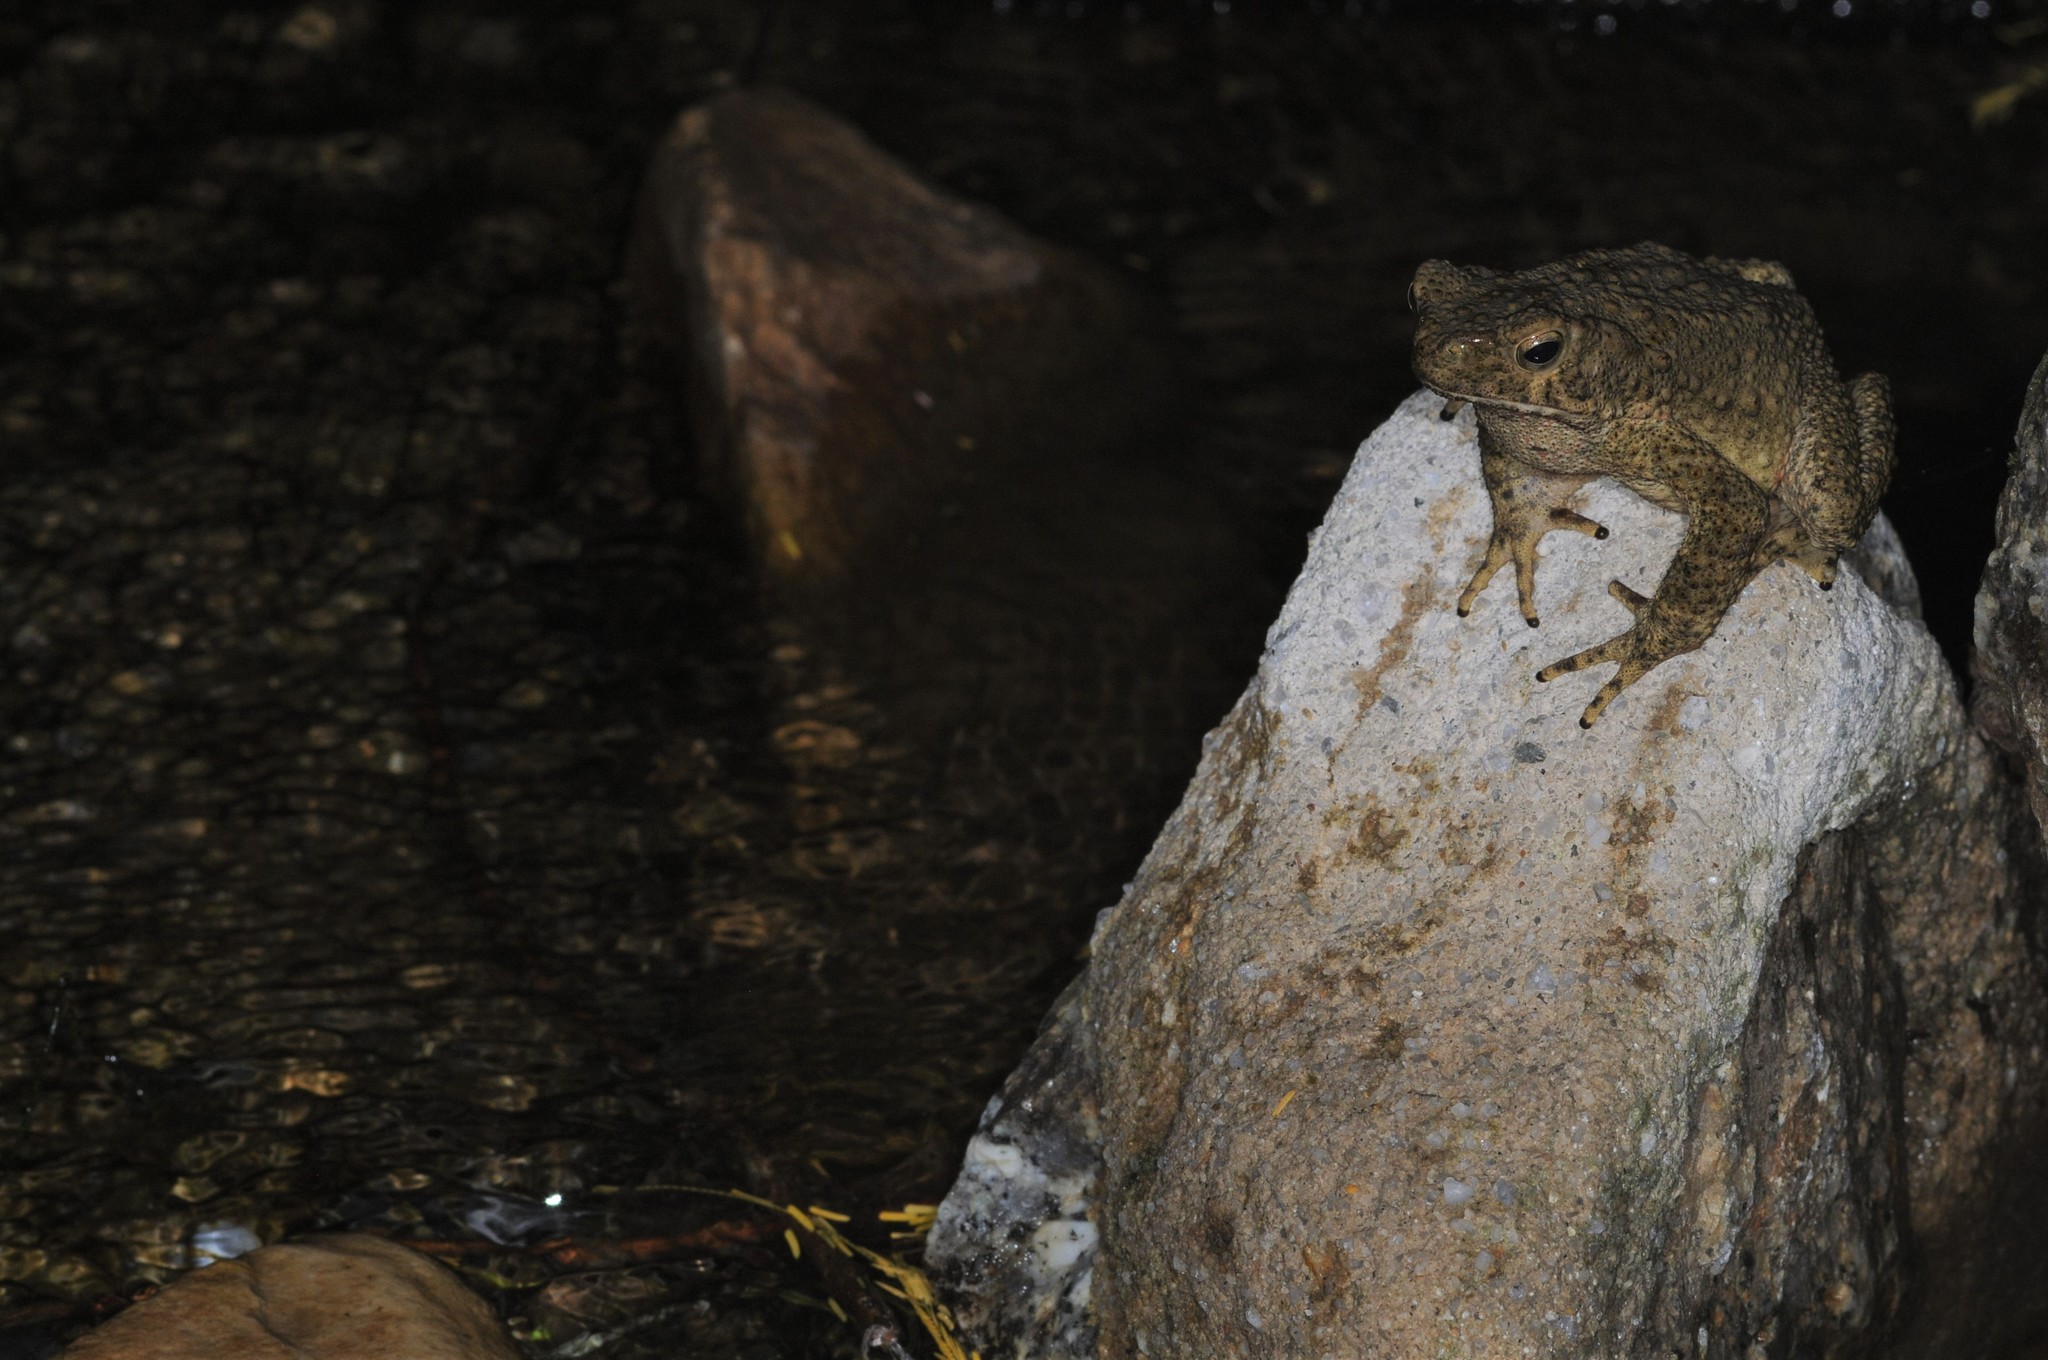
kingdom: Animalia
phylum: Chordata
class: Amphibia
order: Anura
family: Bufonidae
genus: Phrynoidis
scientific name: Phrynoidis asper
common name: Asian giant toad
